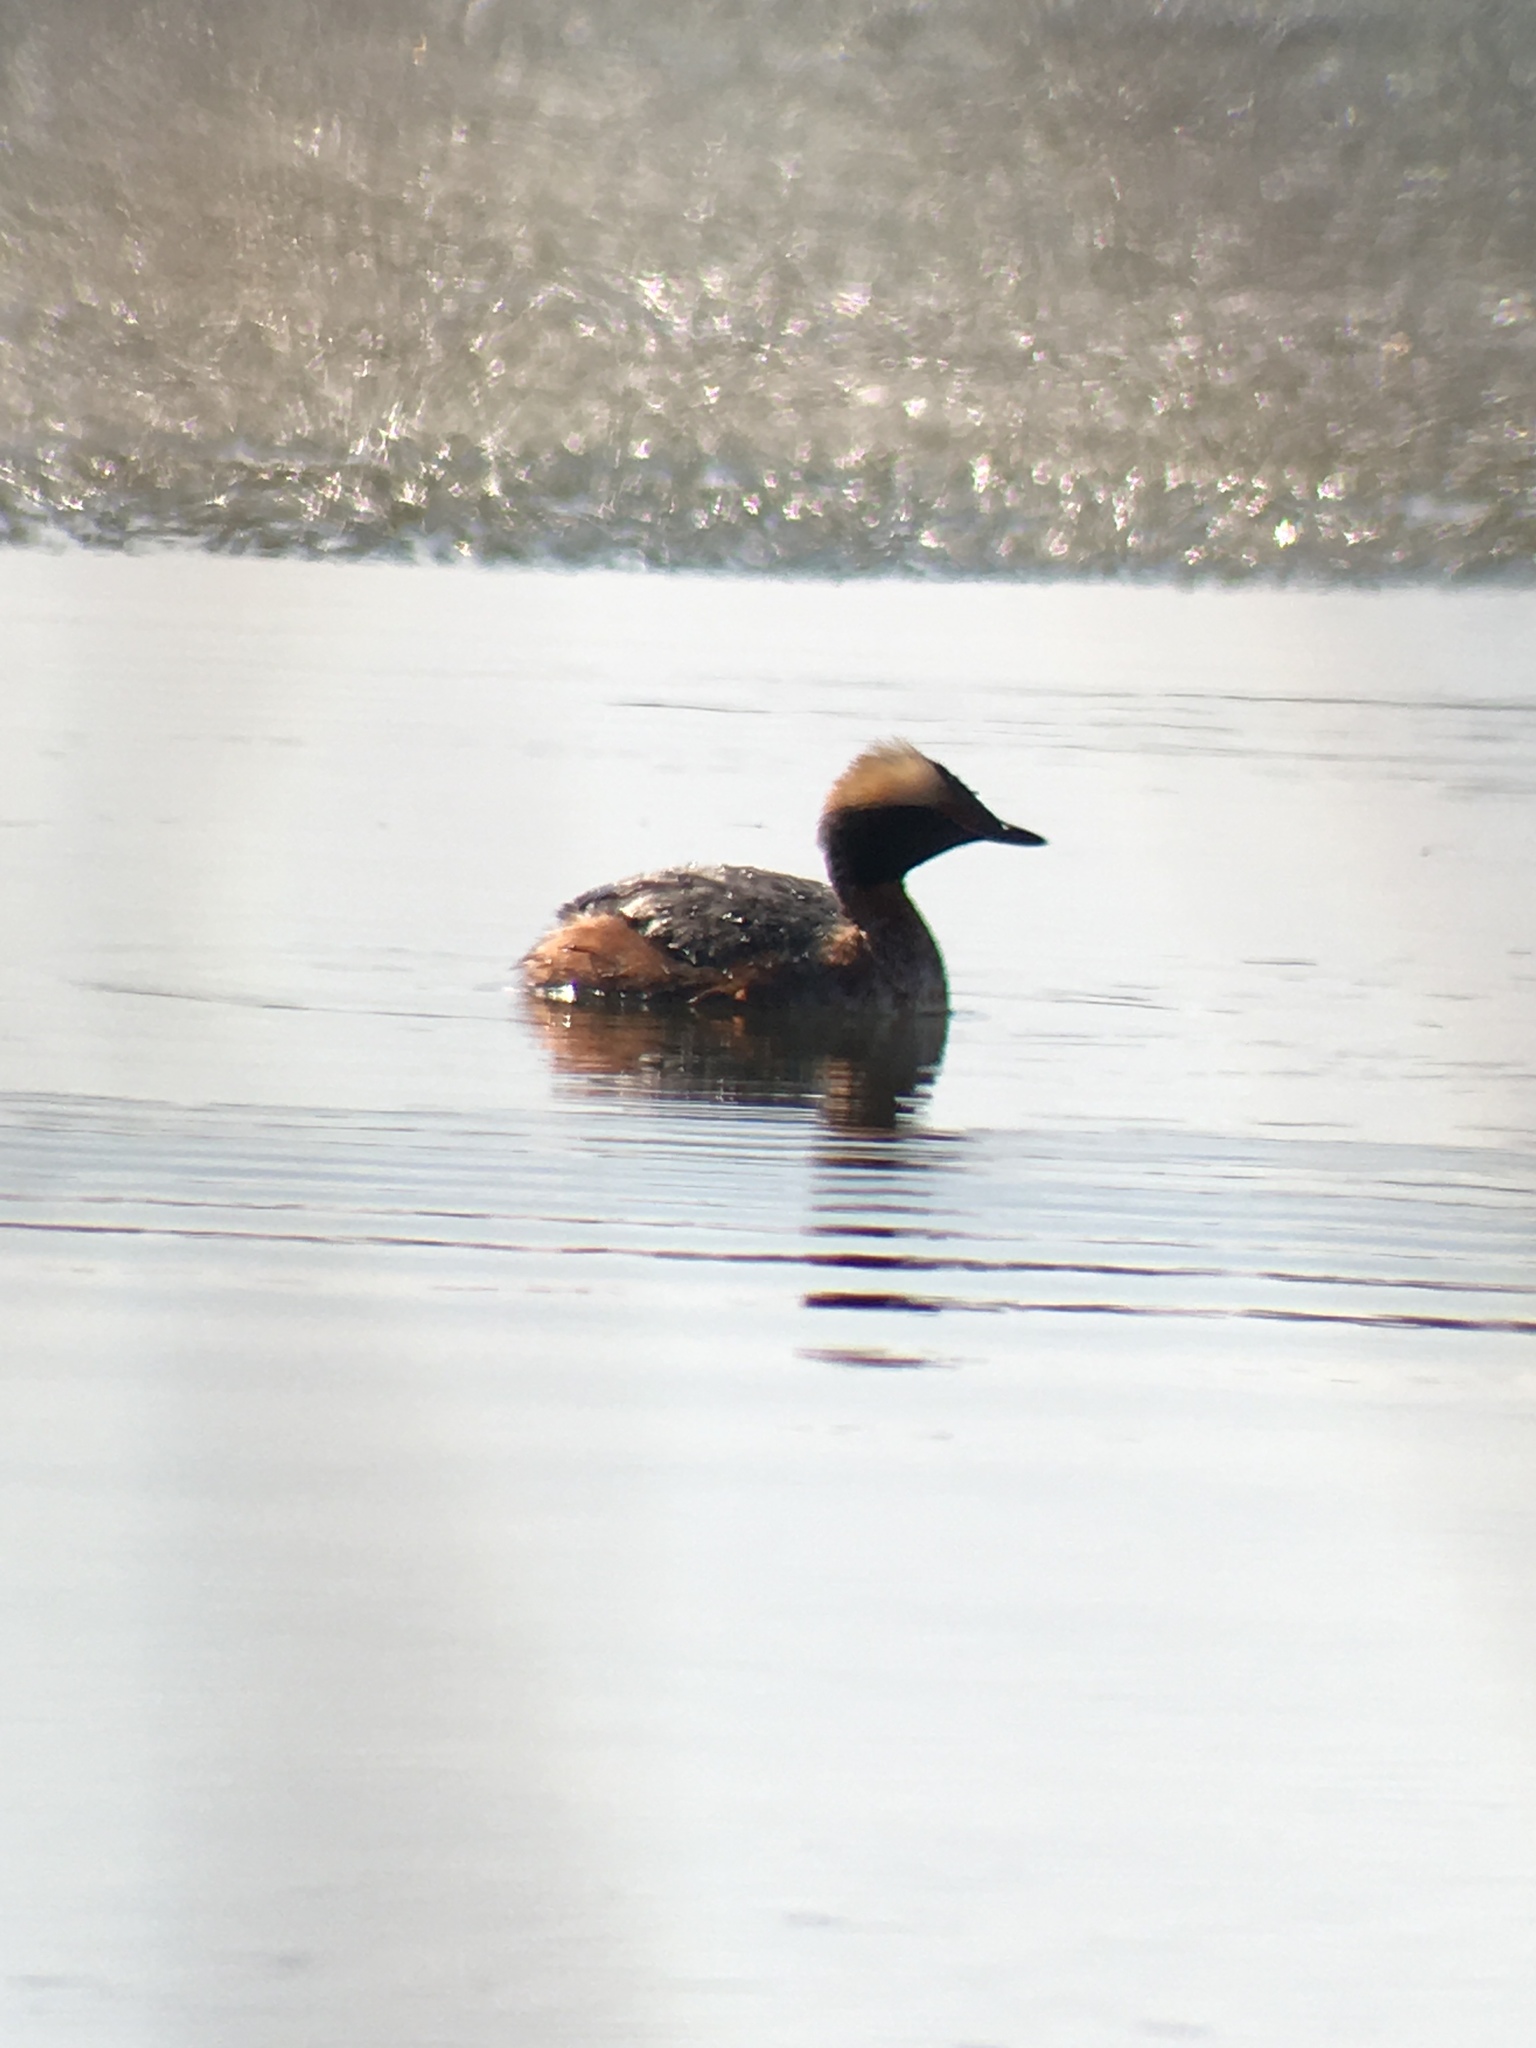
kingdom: Animalia
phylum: Chordata
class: Aves
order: Podicipediformes
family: Podicipedidae
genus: Podiceps
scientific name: Podiceps auritus
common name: Horned grebe
